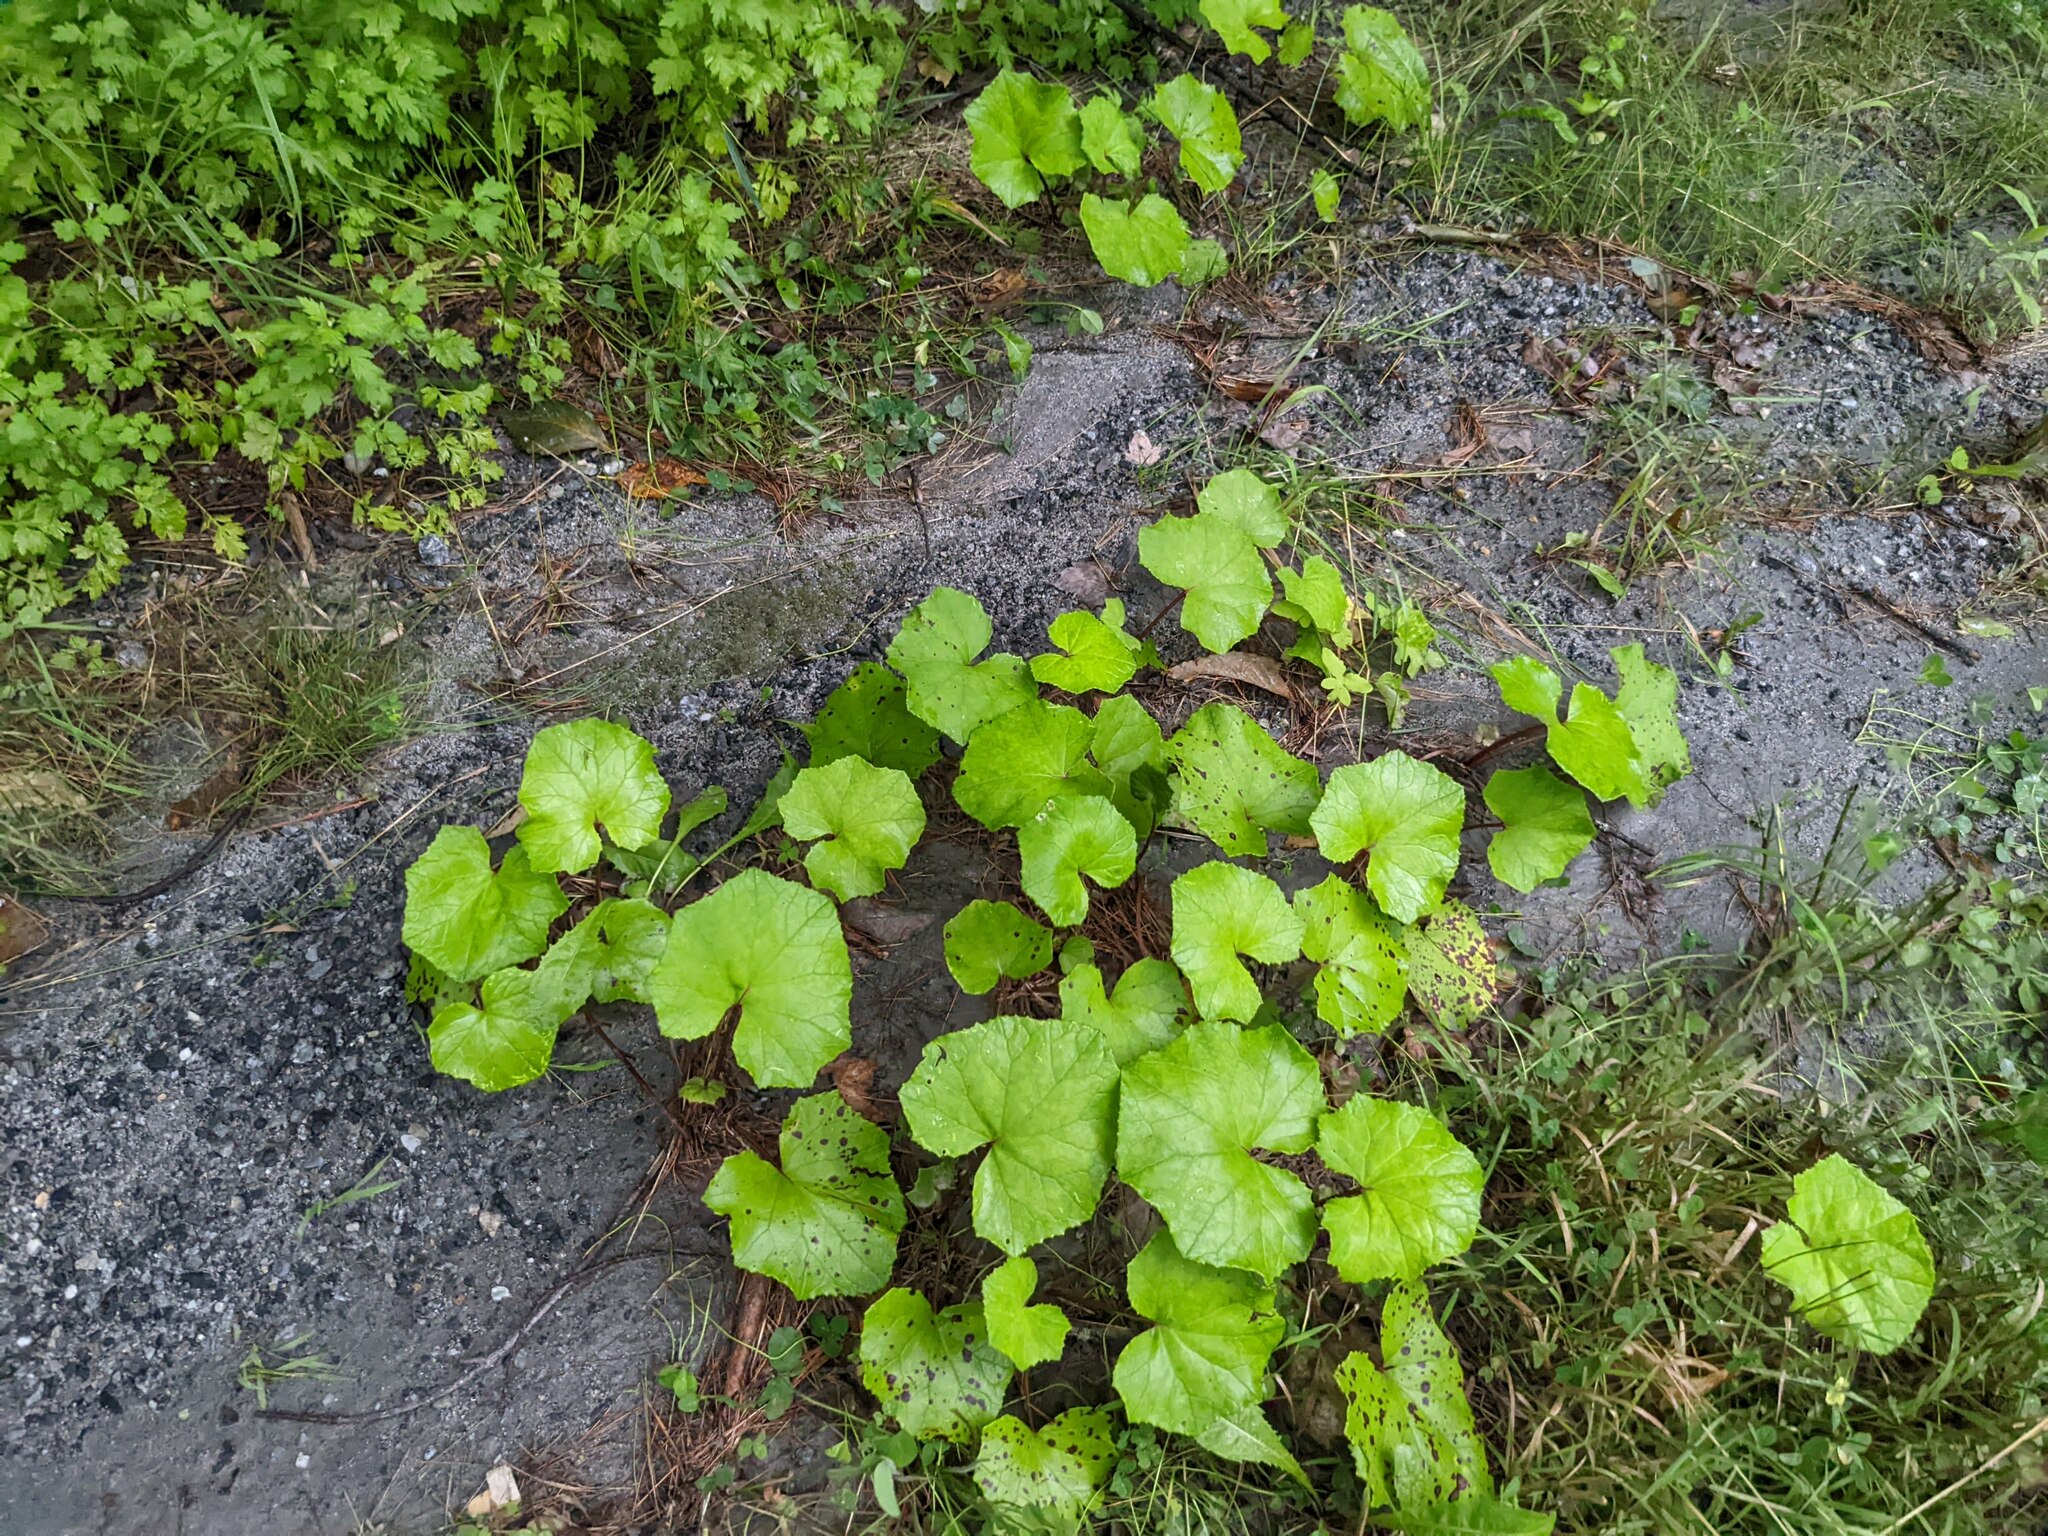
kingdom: Plantae
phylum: Tracheophyta
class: Magnoliopsida
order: Asterales
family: Asteraceae
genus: Tussilago
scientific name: Tussilago farfara
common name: Coltsfoot
